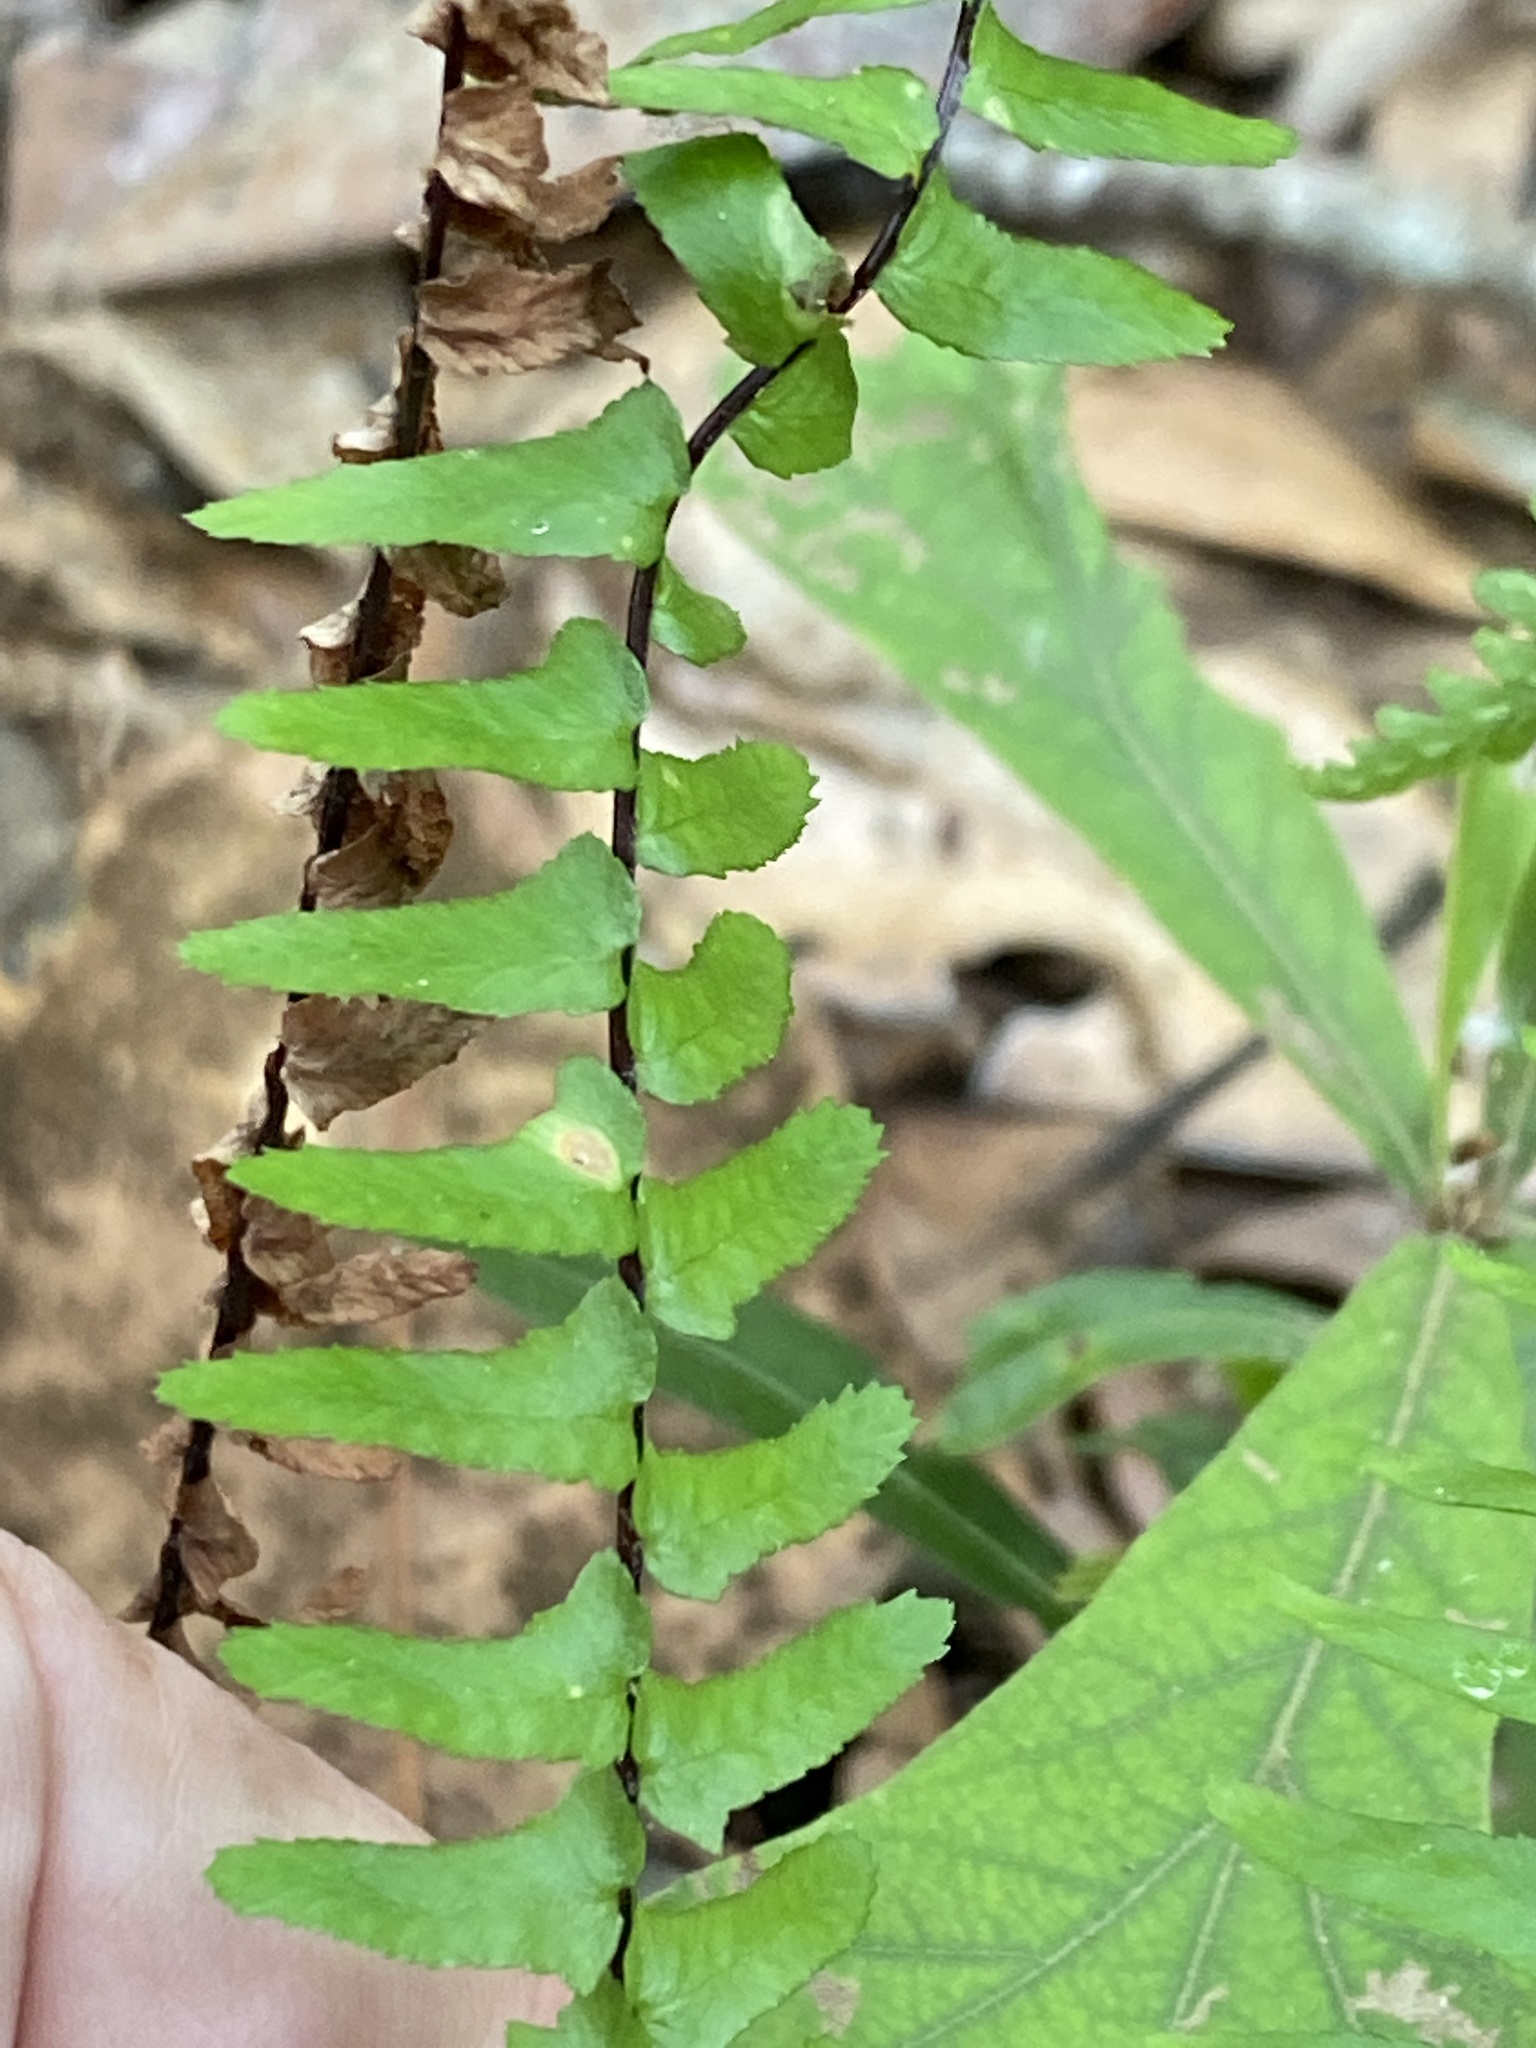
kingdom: Plantae
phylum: Tracheophyta
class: Polypodiopsida
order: Polypodiales
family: Aspleniaceae
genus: Asplenium
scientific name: Asplenium platyneuron
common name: Ebony spleenwort
